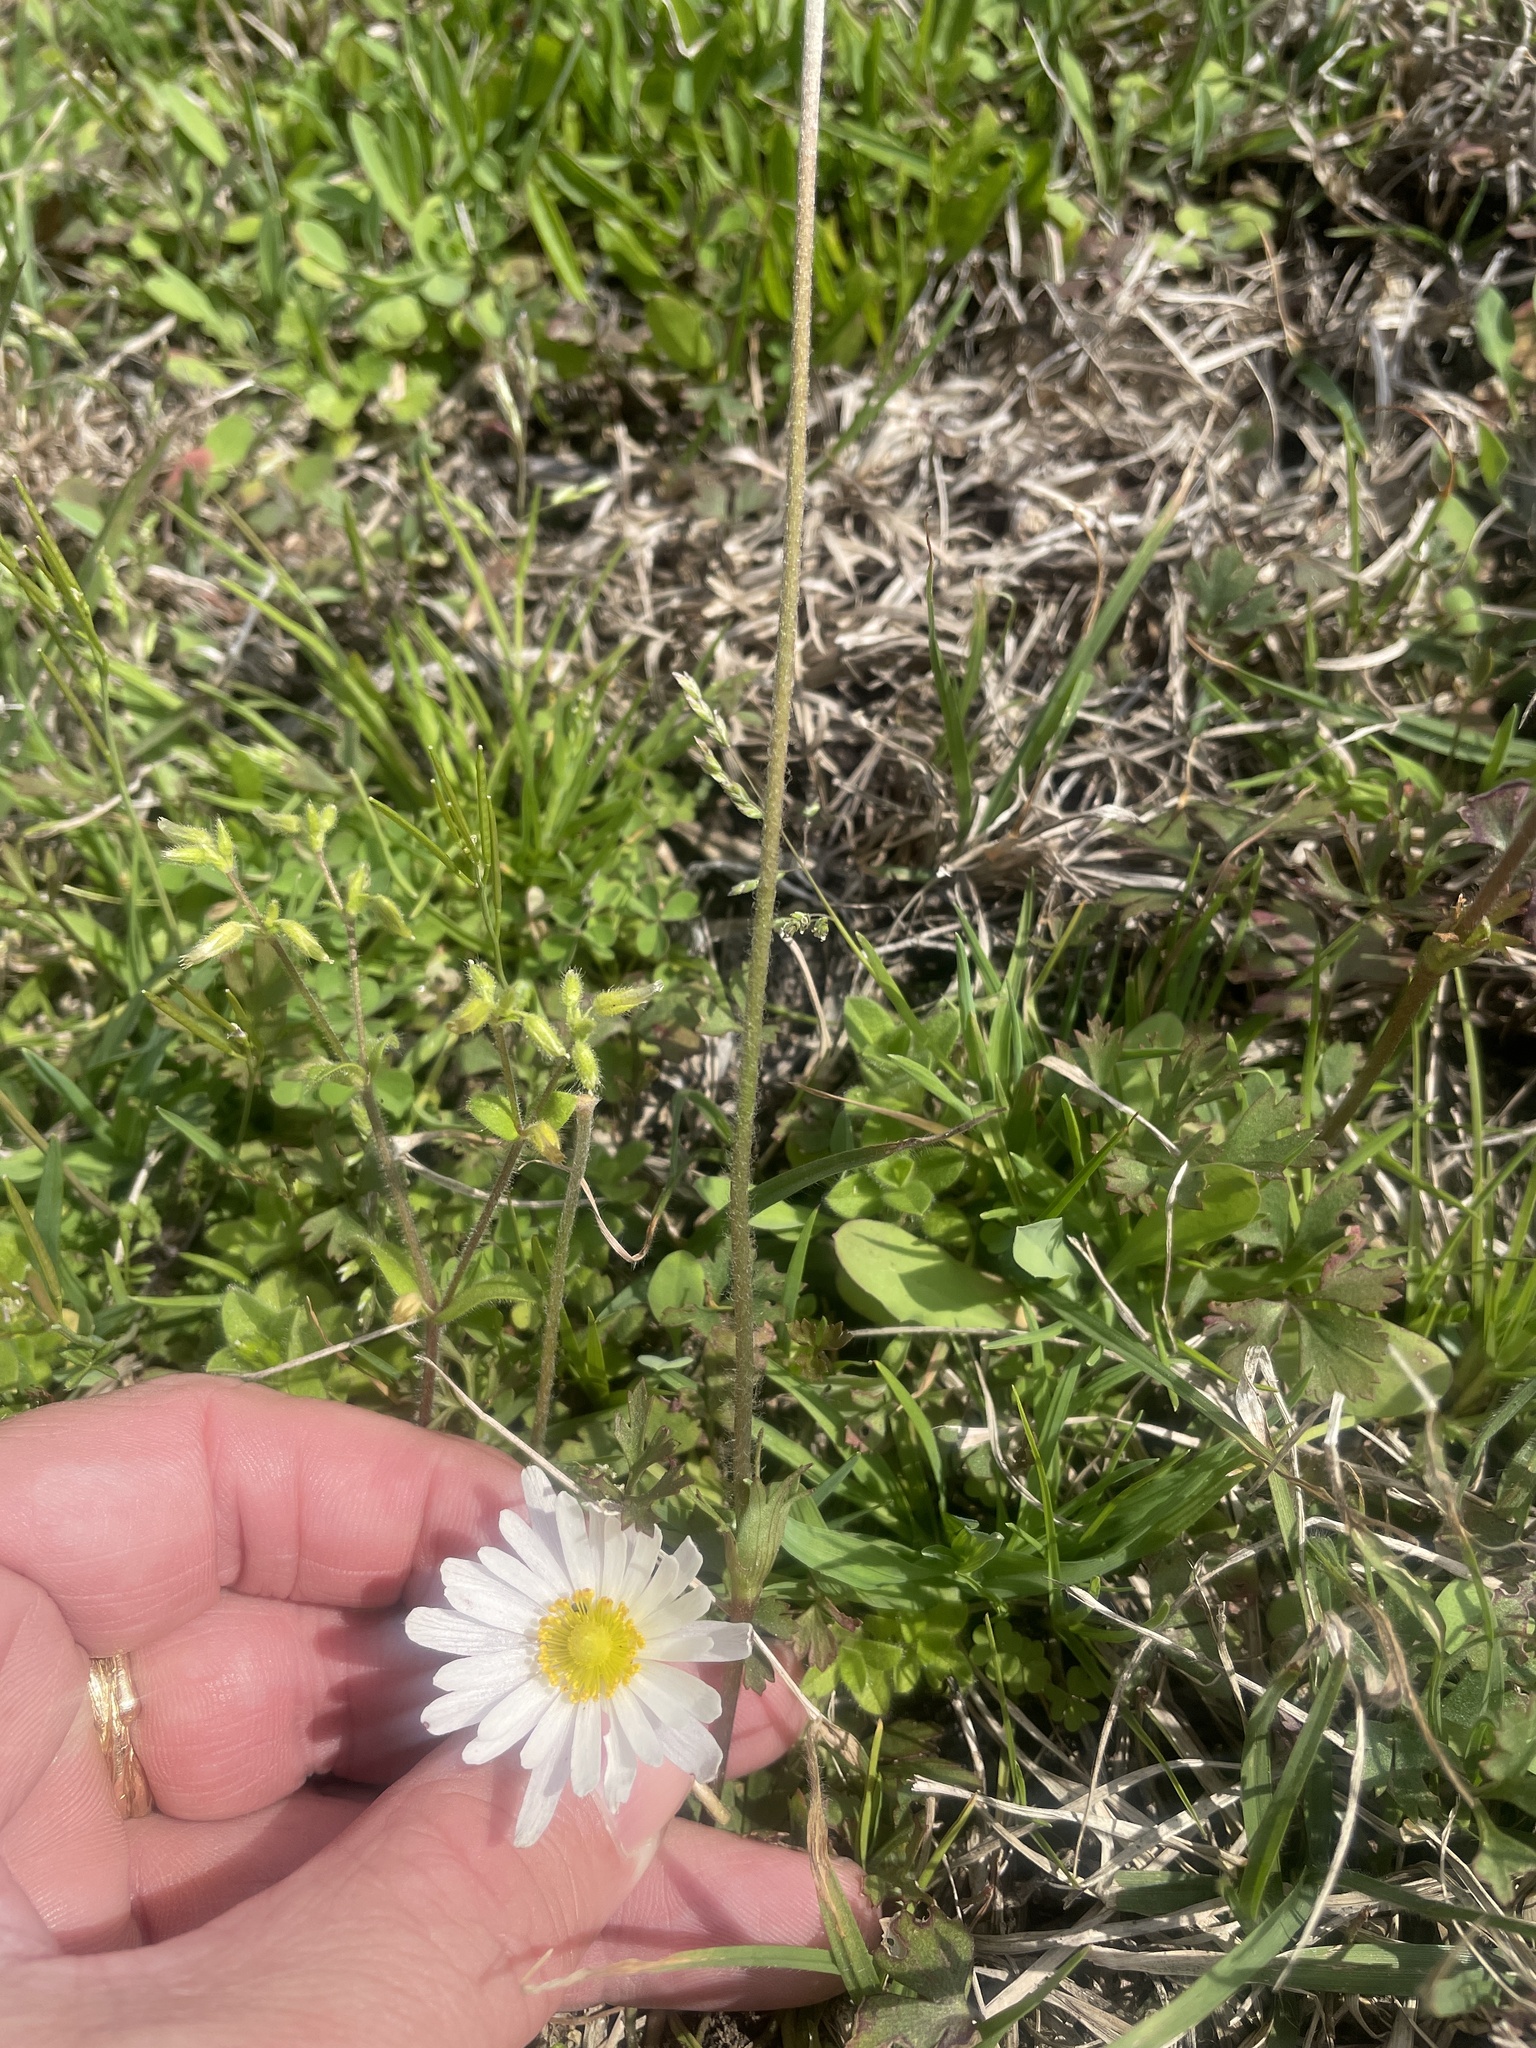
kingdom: Plantae
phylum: Tracheophyta
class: Magnoliopsida
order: Ranunculales
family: Ranunculaceae
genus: Anemone
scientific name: Anemone caroliniana
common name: Carolina anemone
